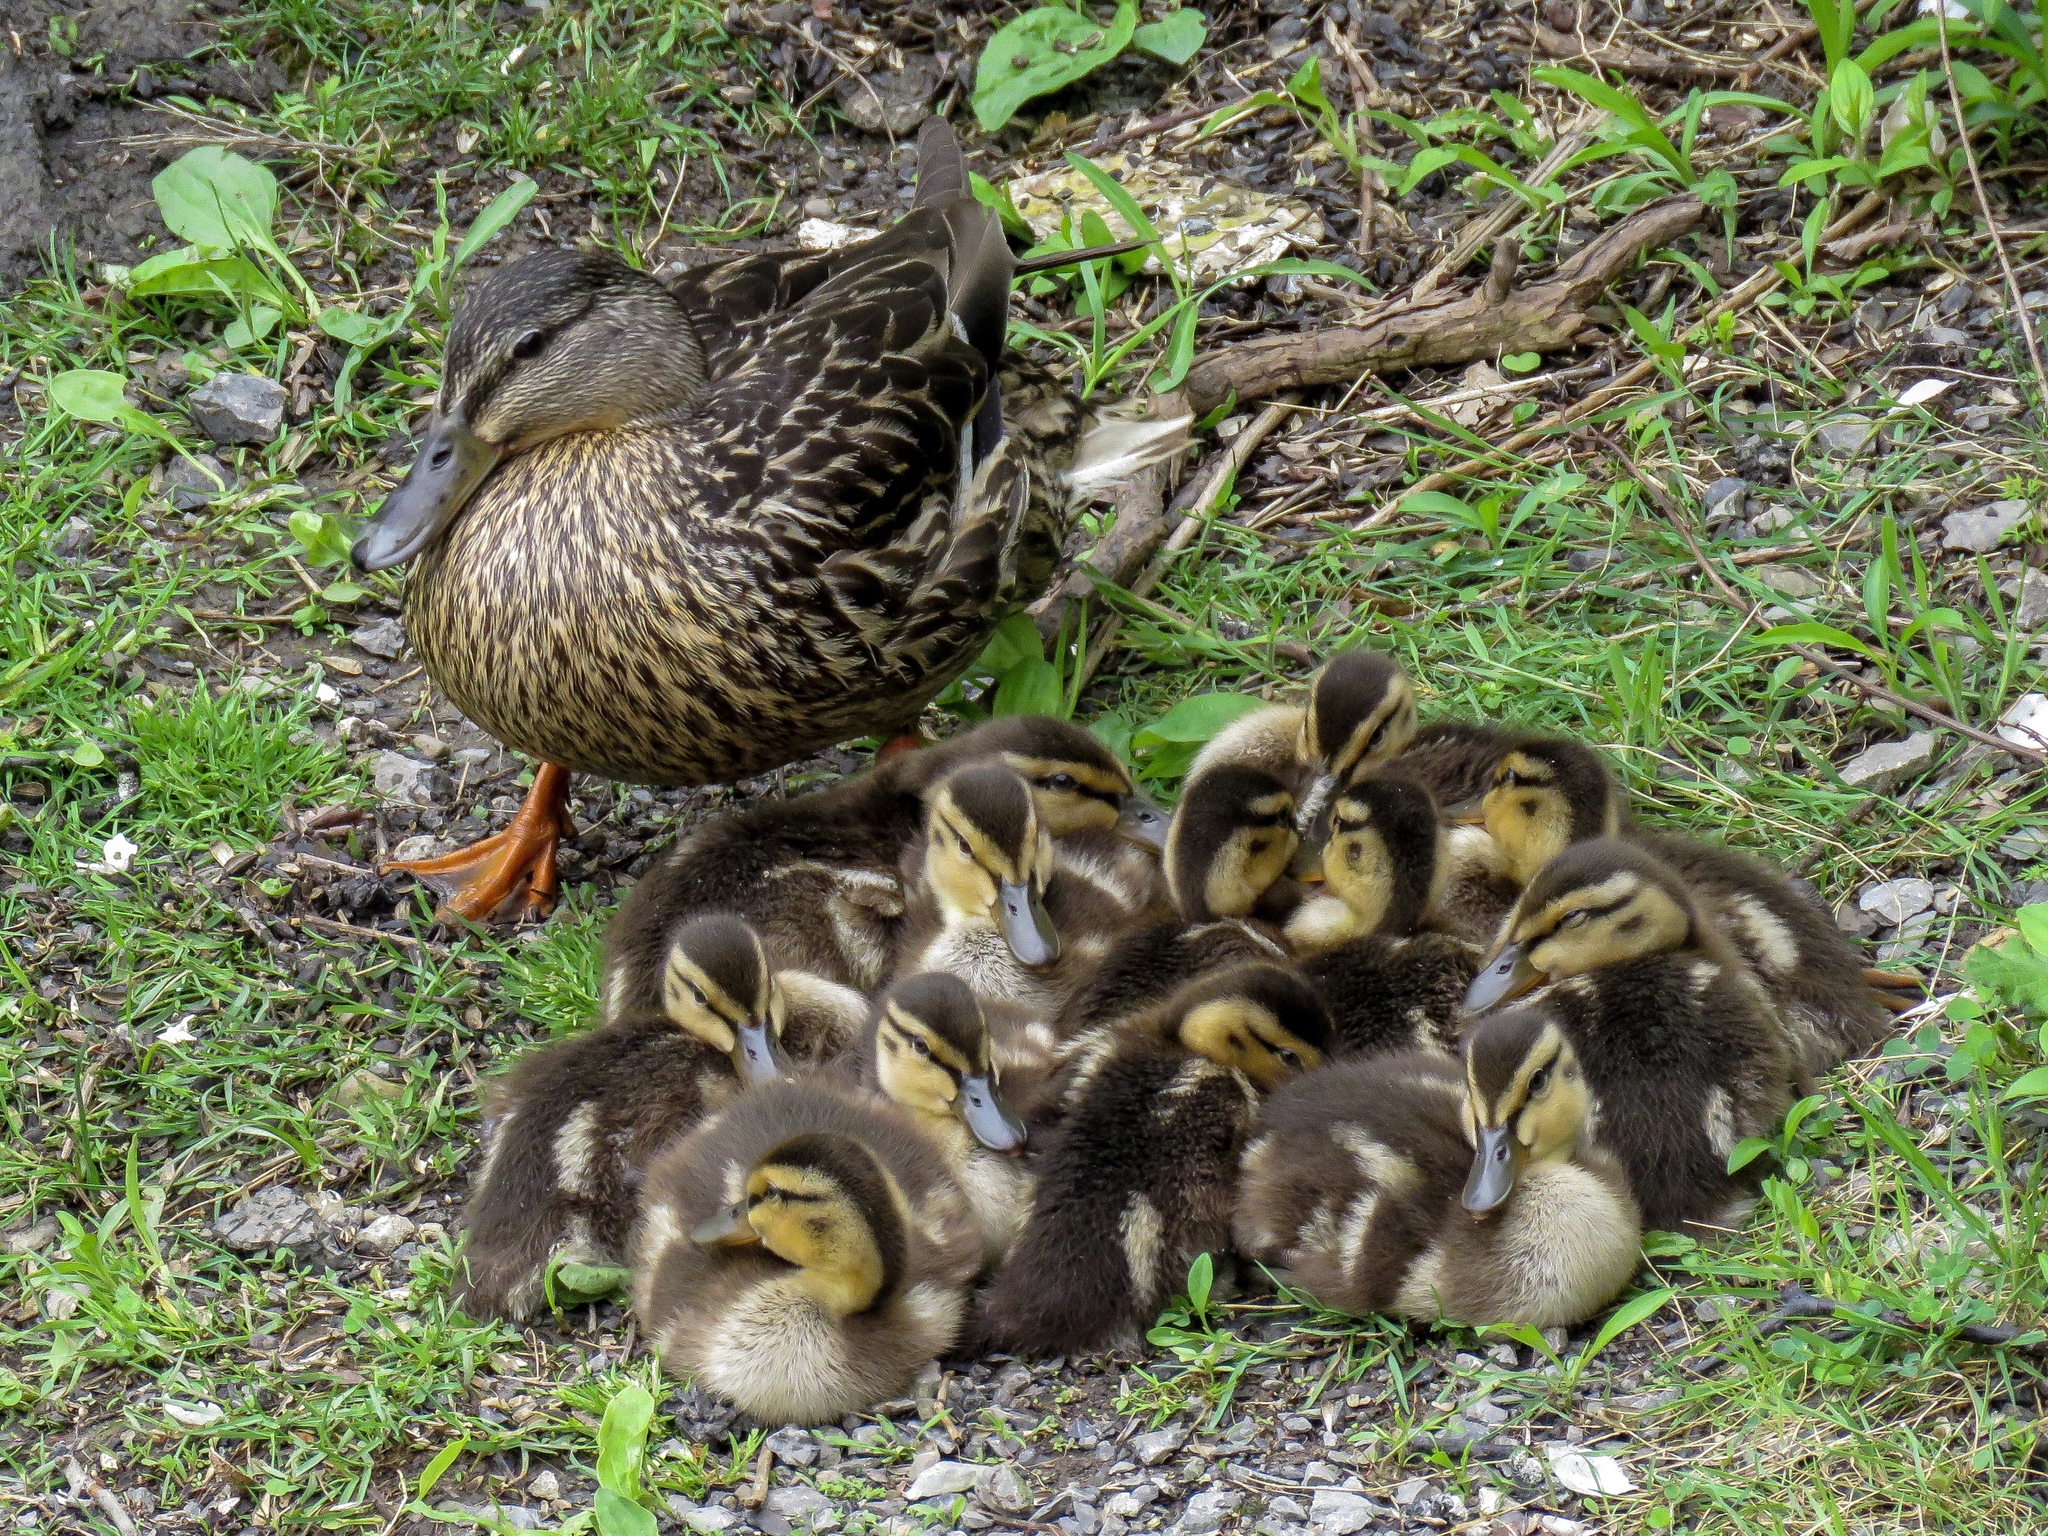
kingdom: Animalia
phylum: Chordata
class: Aves
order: Anseriformes
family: Anatidae
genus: Anas
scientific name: Anas platyrhynchos
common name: Mallard
